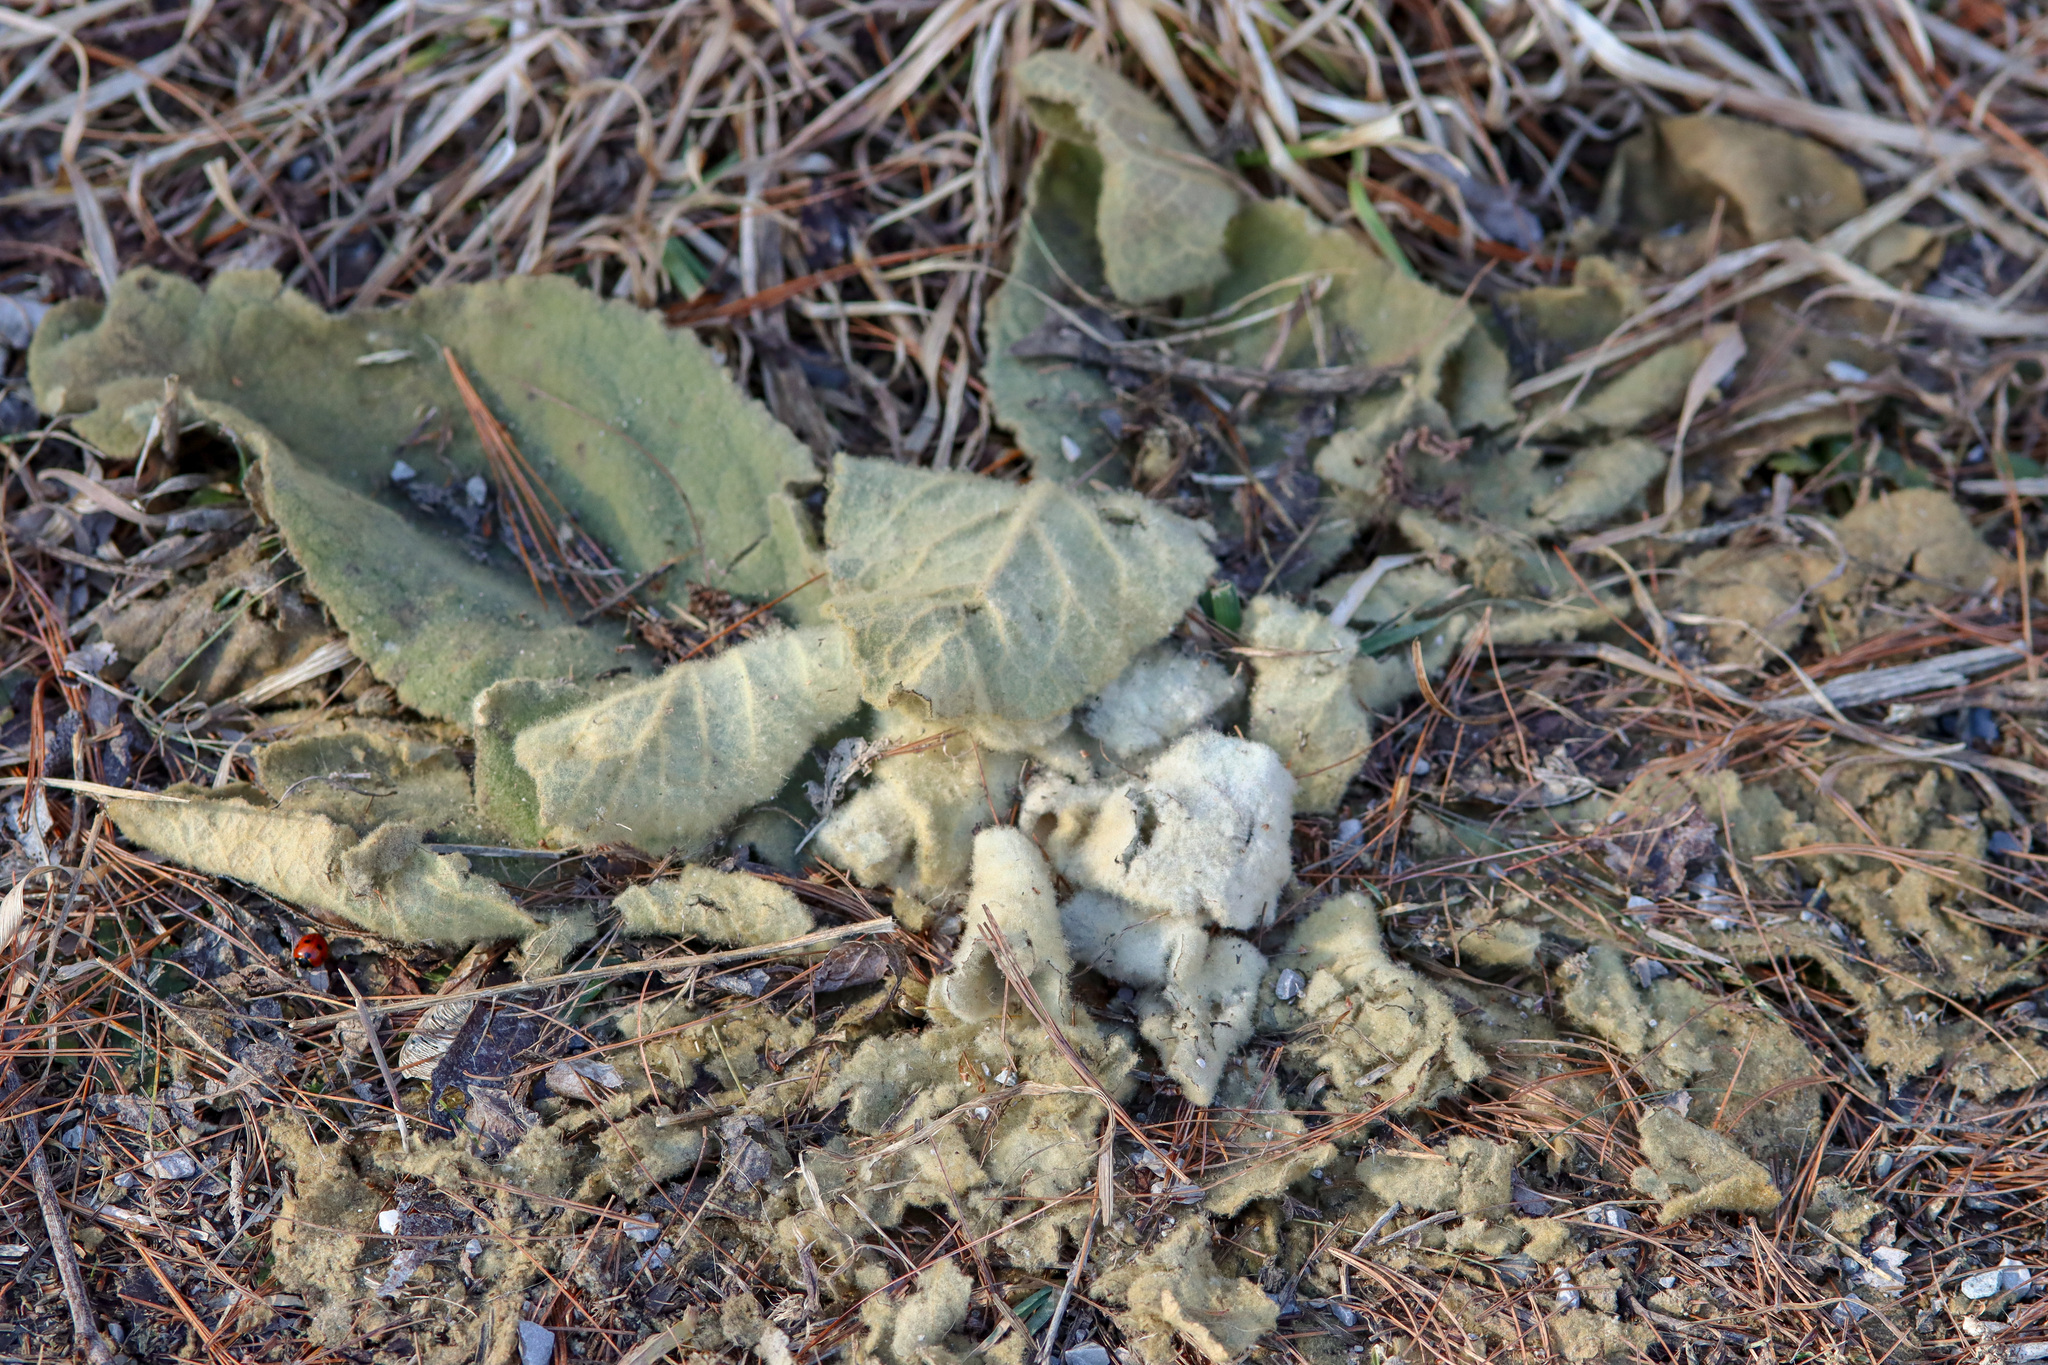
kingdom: Plantae
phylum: Tracheophyta
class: Magnoliopsida
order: Lamiales
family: Scrophulariaceae
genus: Verbascum
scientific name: Verbascum thapsus
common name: Common mullein
